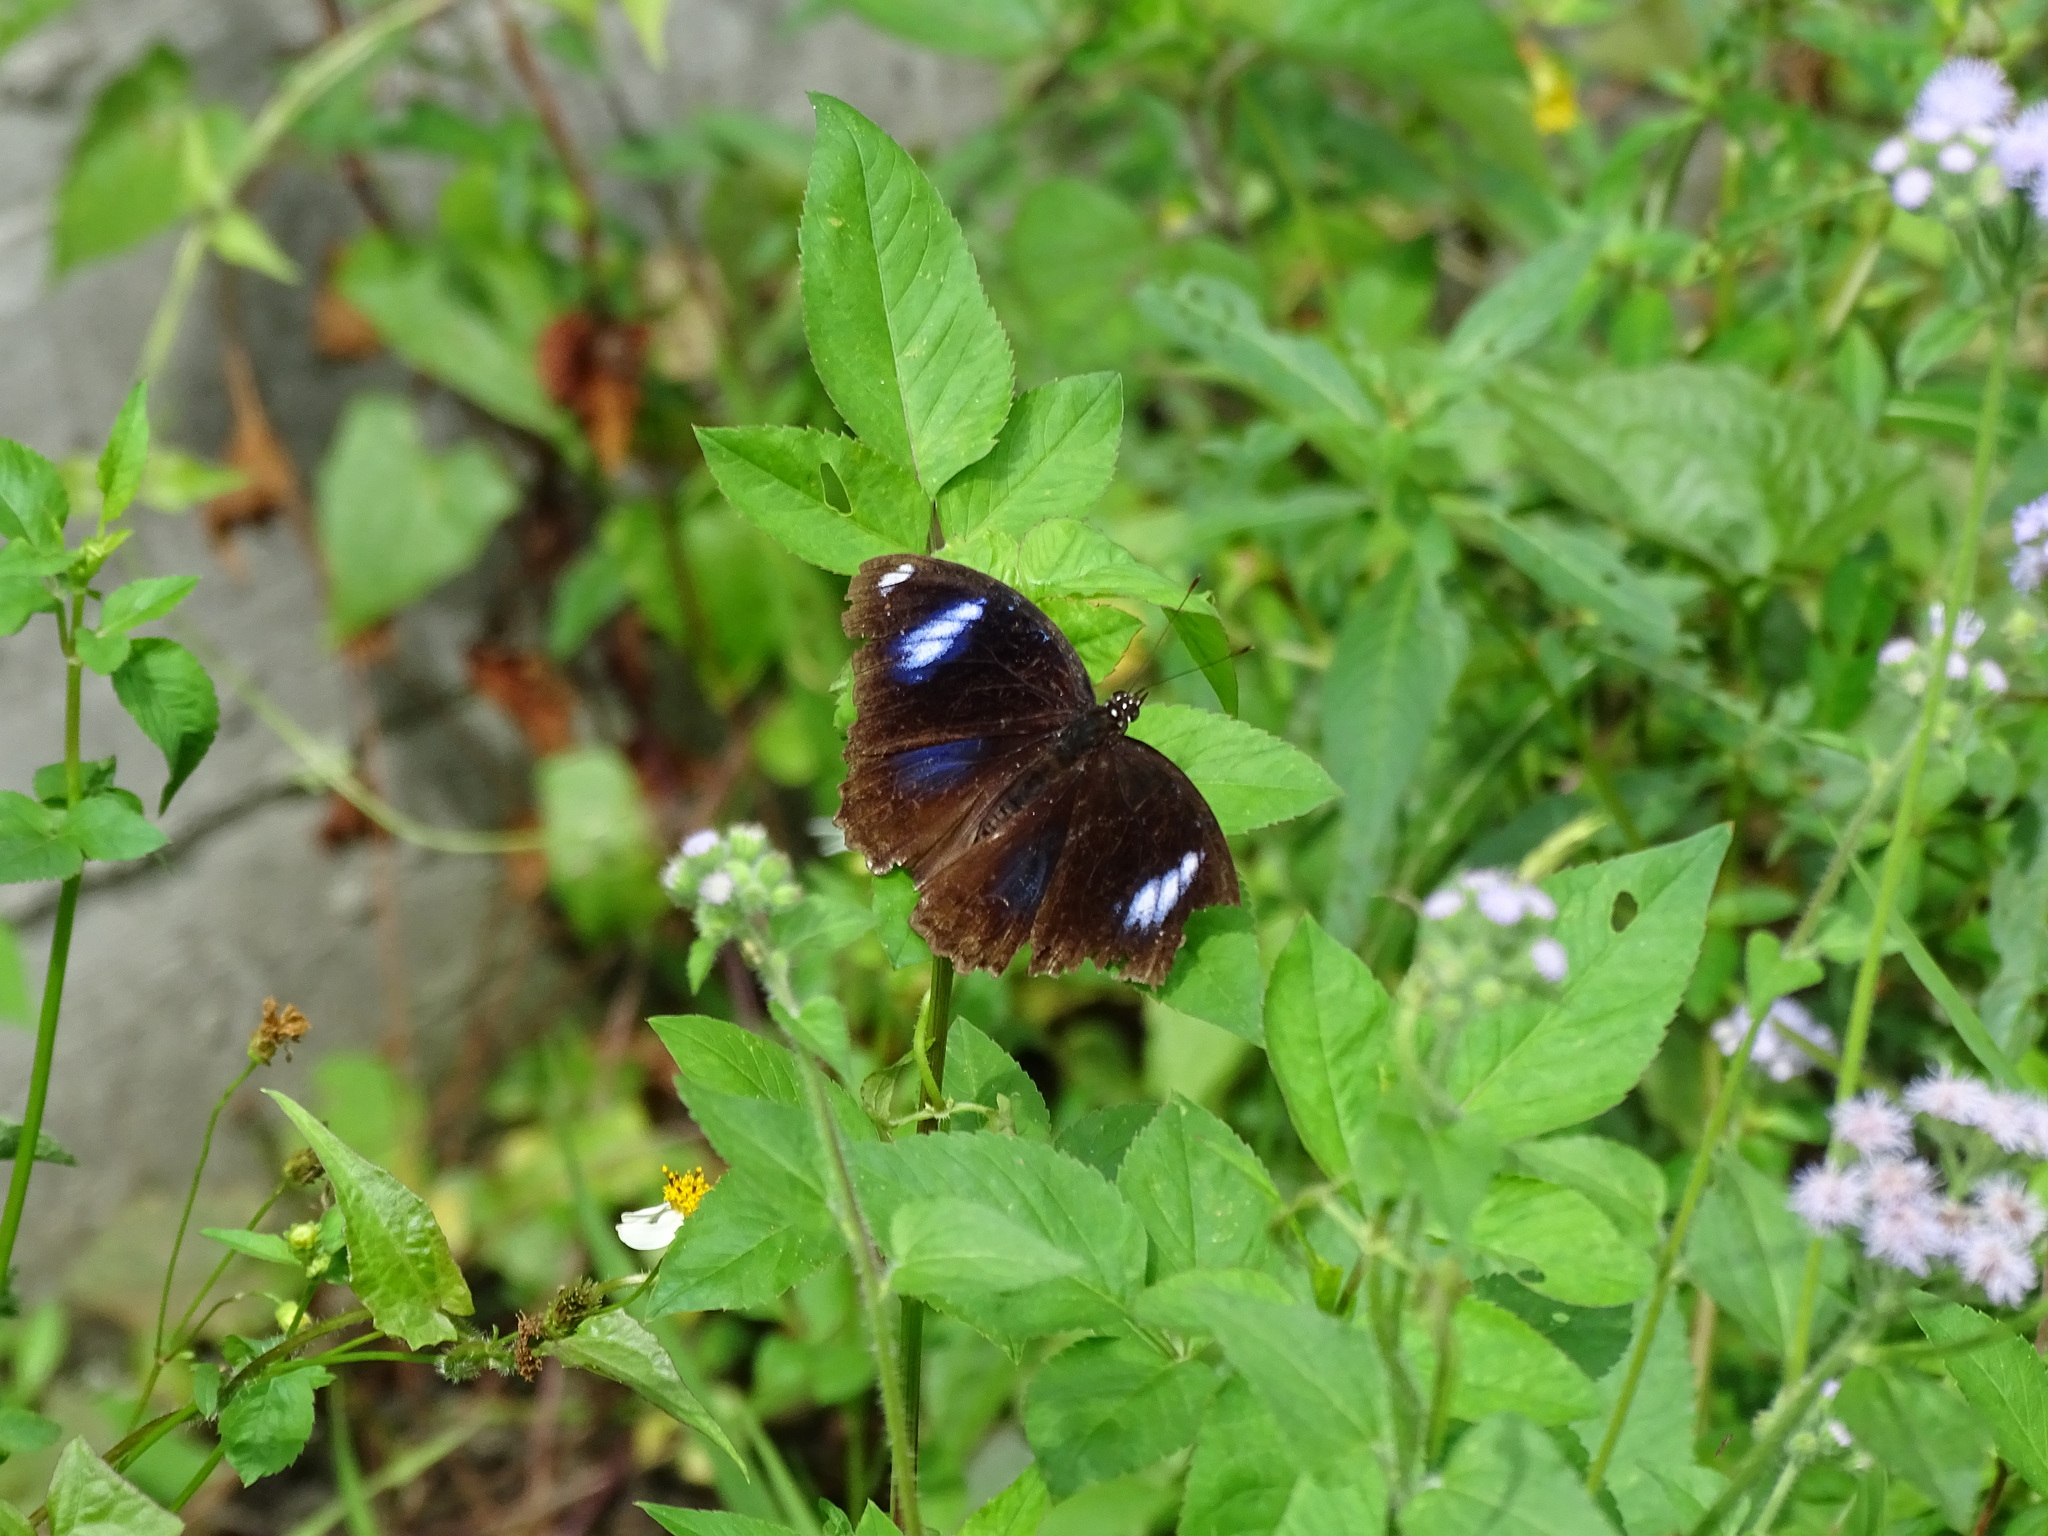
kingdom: Animalia
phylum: Arthropoda
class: Insecta
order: Lepidoptera
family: Nymphalidae
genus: Hypolimnas
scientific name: Hypolimnas bolina
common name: Great eggfly
